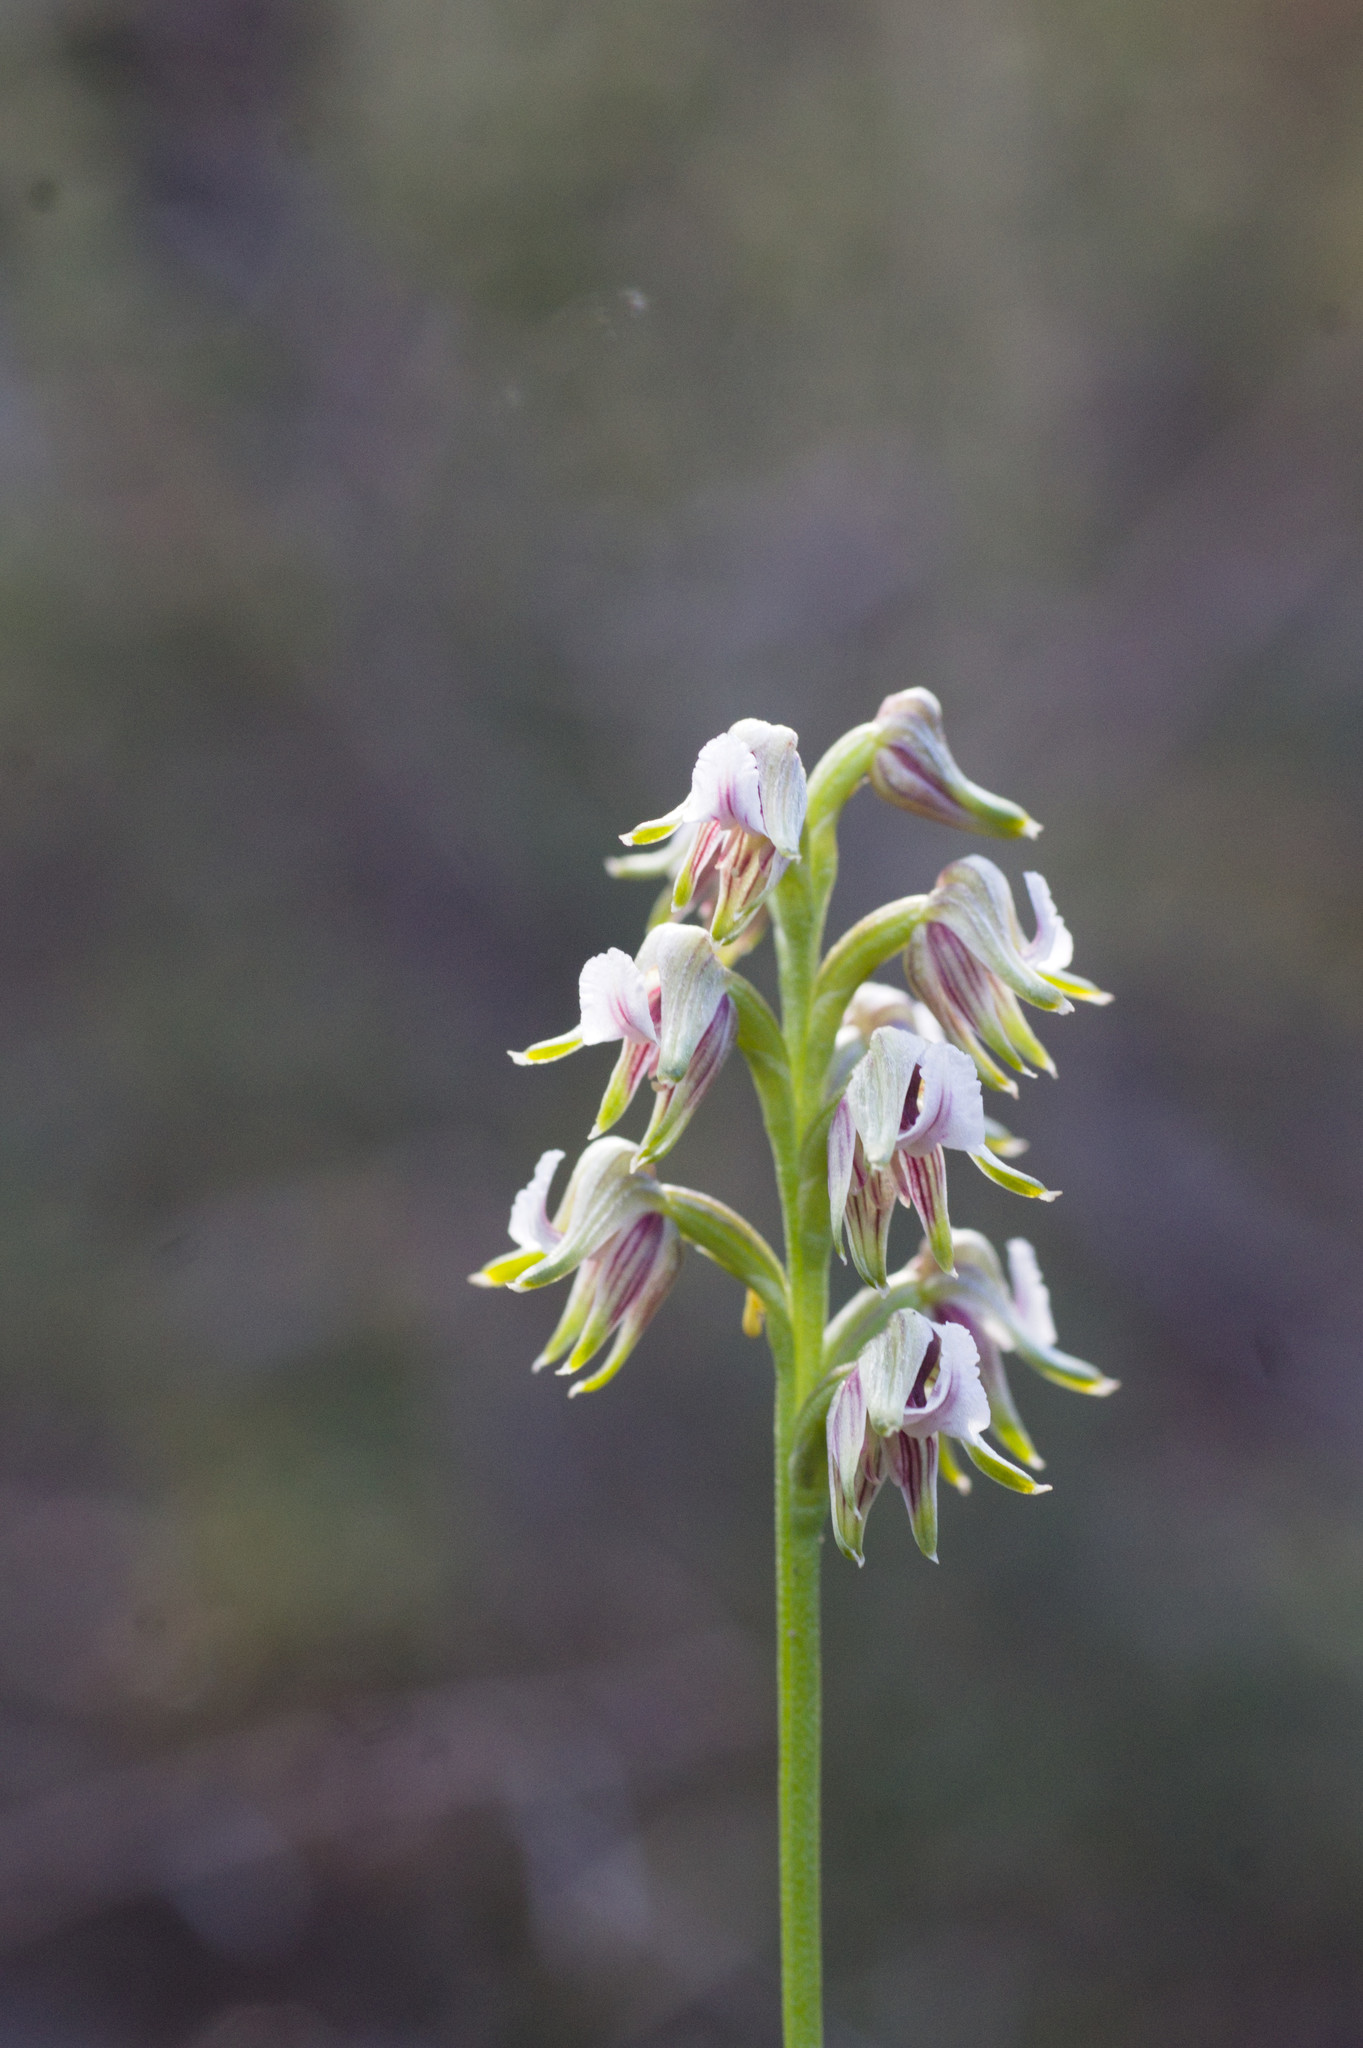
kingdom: Plantae
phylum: Tracheophyta
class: Liliopsida
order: Asparagales
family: Orchidaceae
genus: Prasophyllum
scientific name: Prasophyllum parvifolium
